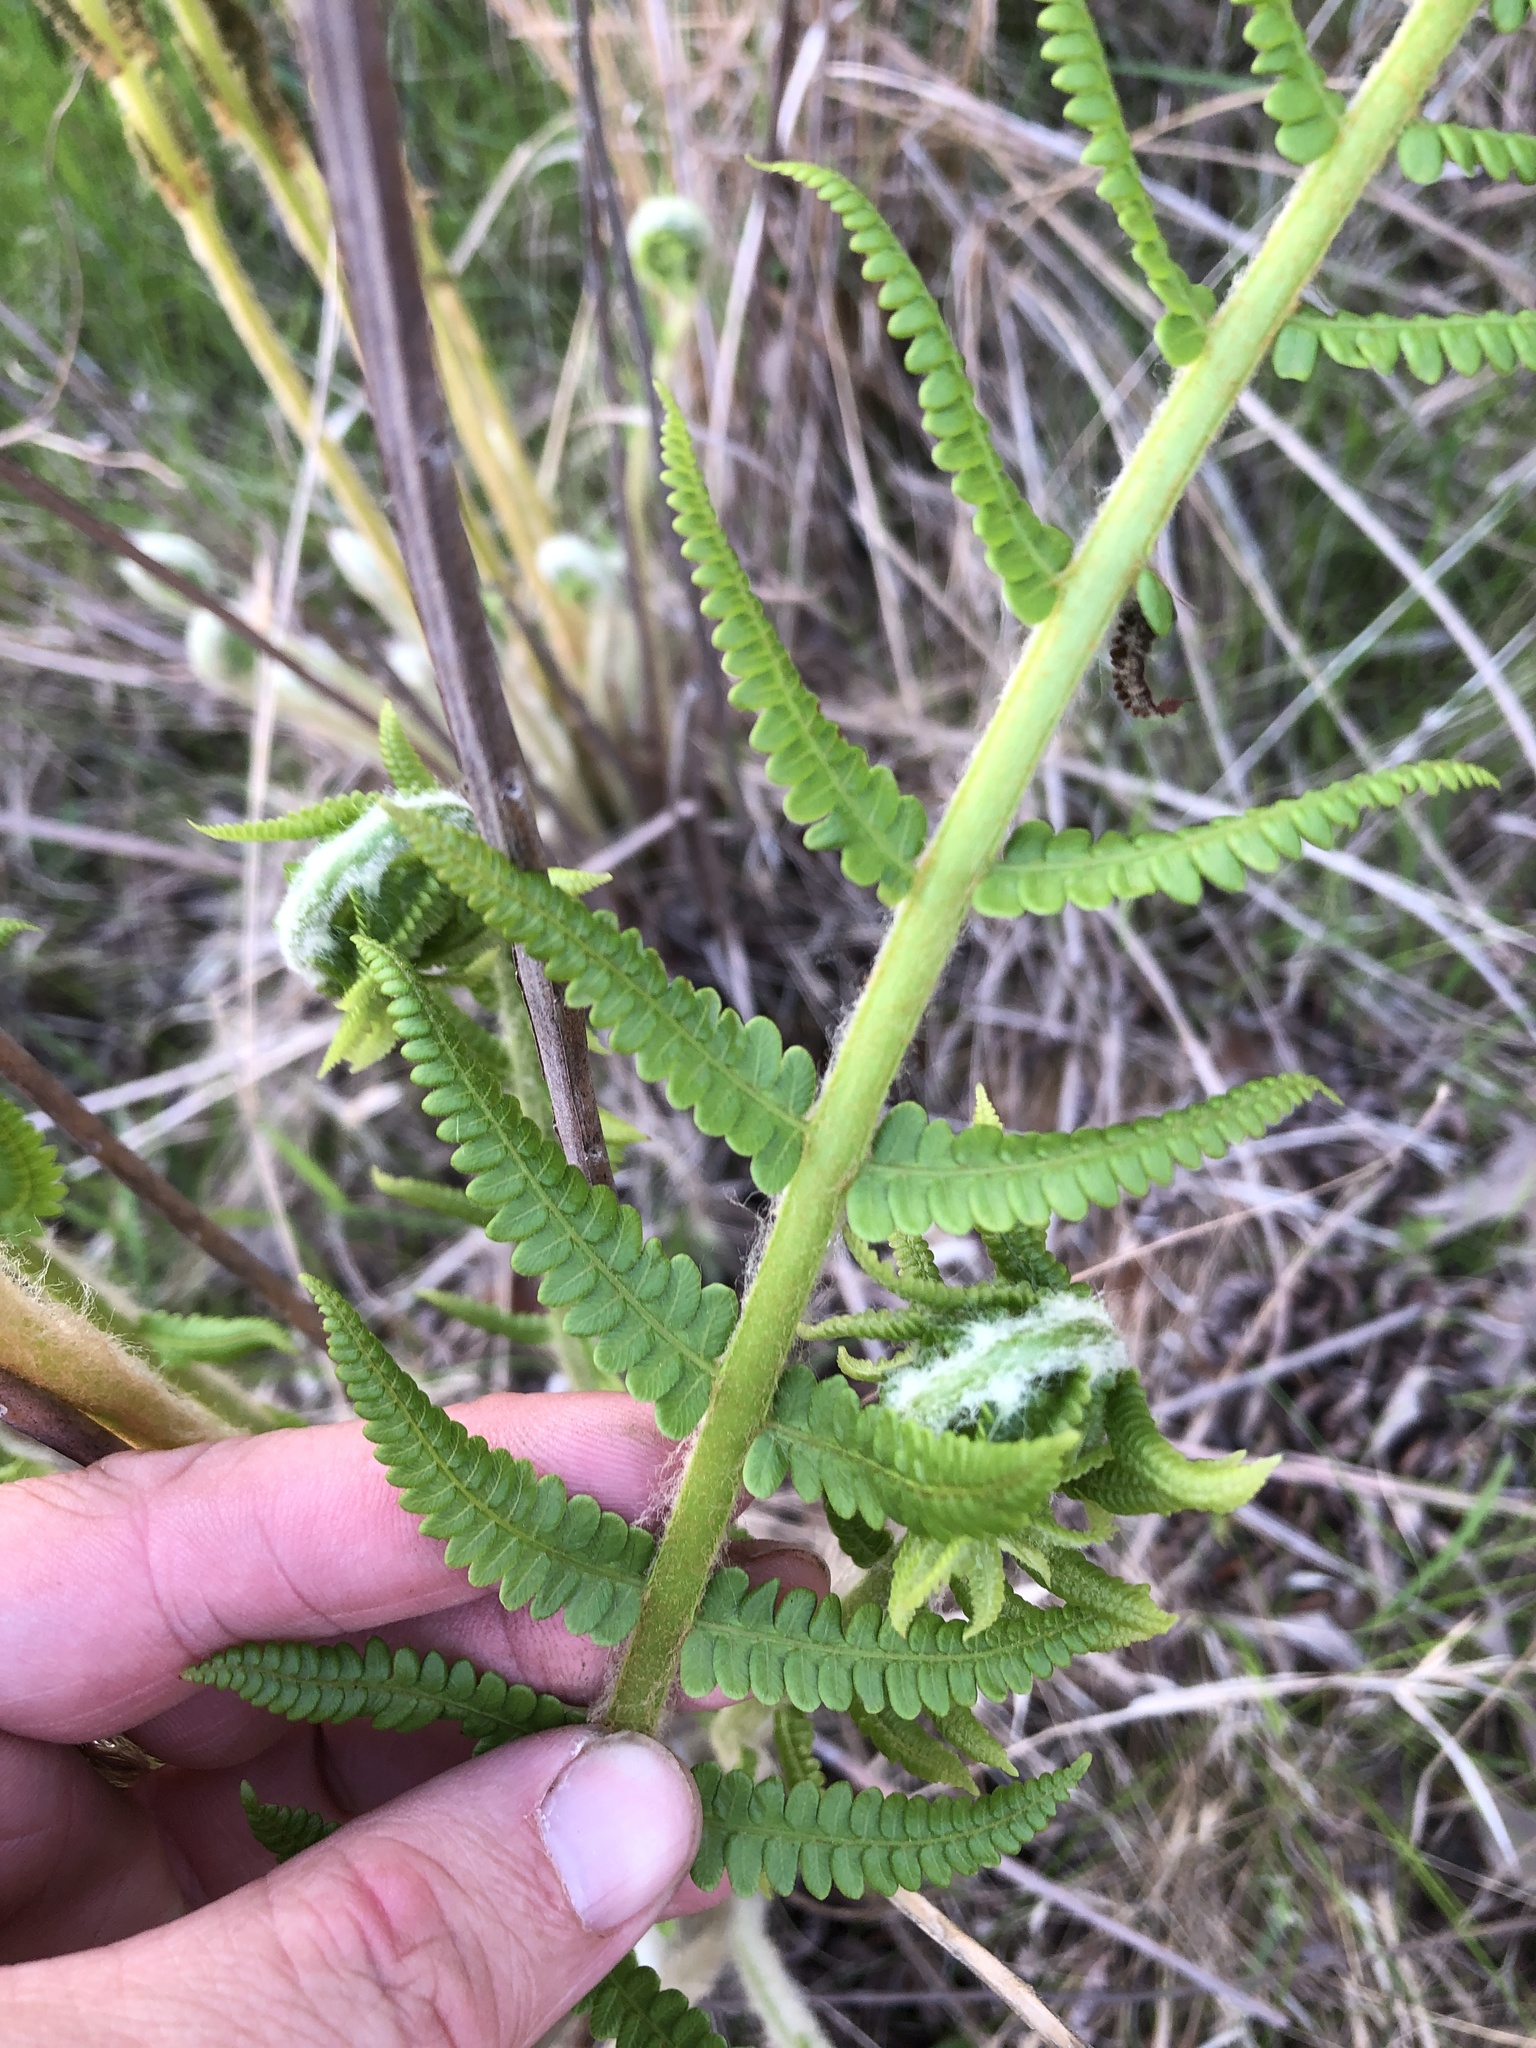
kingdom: Plantae
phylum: Tracheophyta
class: Polypodiopsida
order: Osmundales
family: Osmundaceae
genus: Osmundastrum
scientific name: Osmundastrum cinnamomeum
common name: Cinnamon fern
